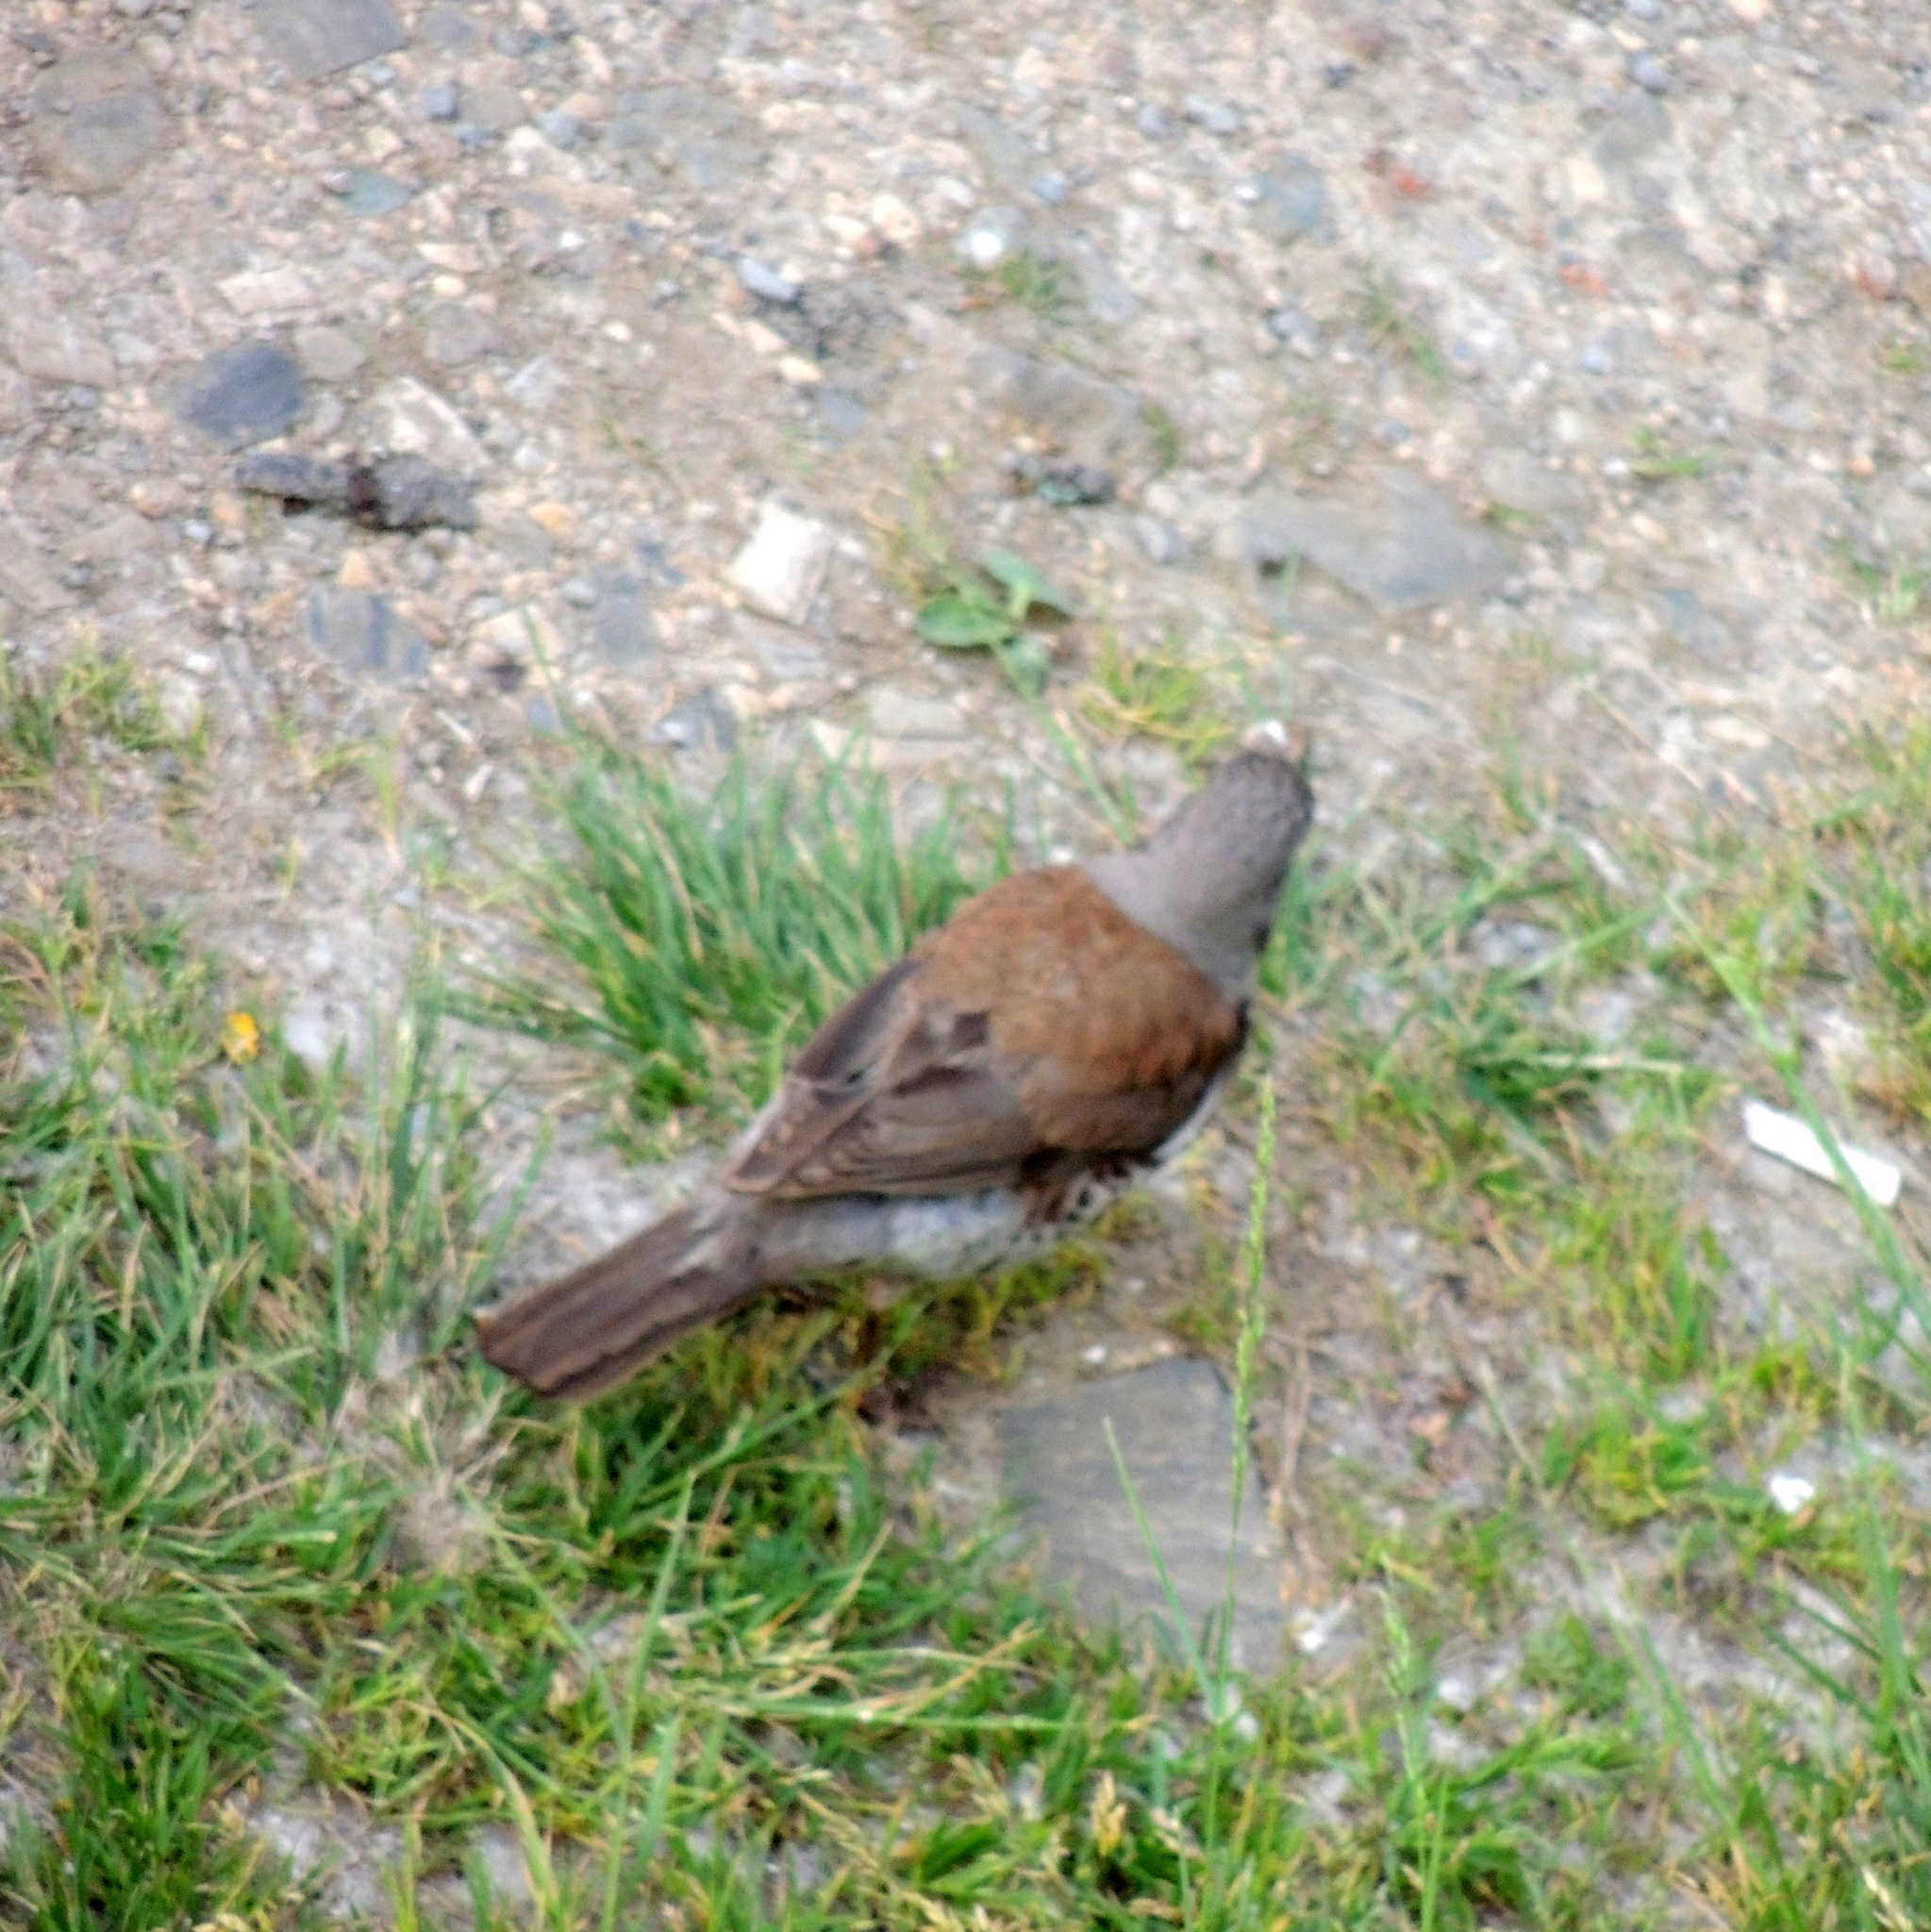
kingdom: Animalia
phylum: Chordata
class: Aves
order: Passeriformes
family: Turdidae
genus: Turdus
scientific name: Turdus pilaris
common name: Fieldfare
